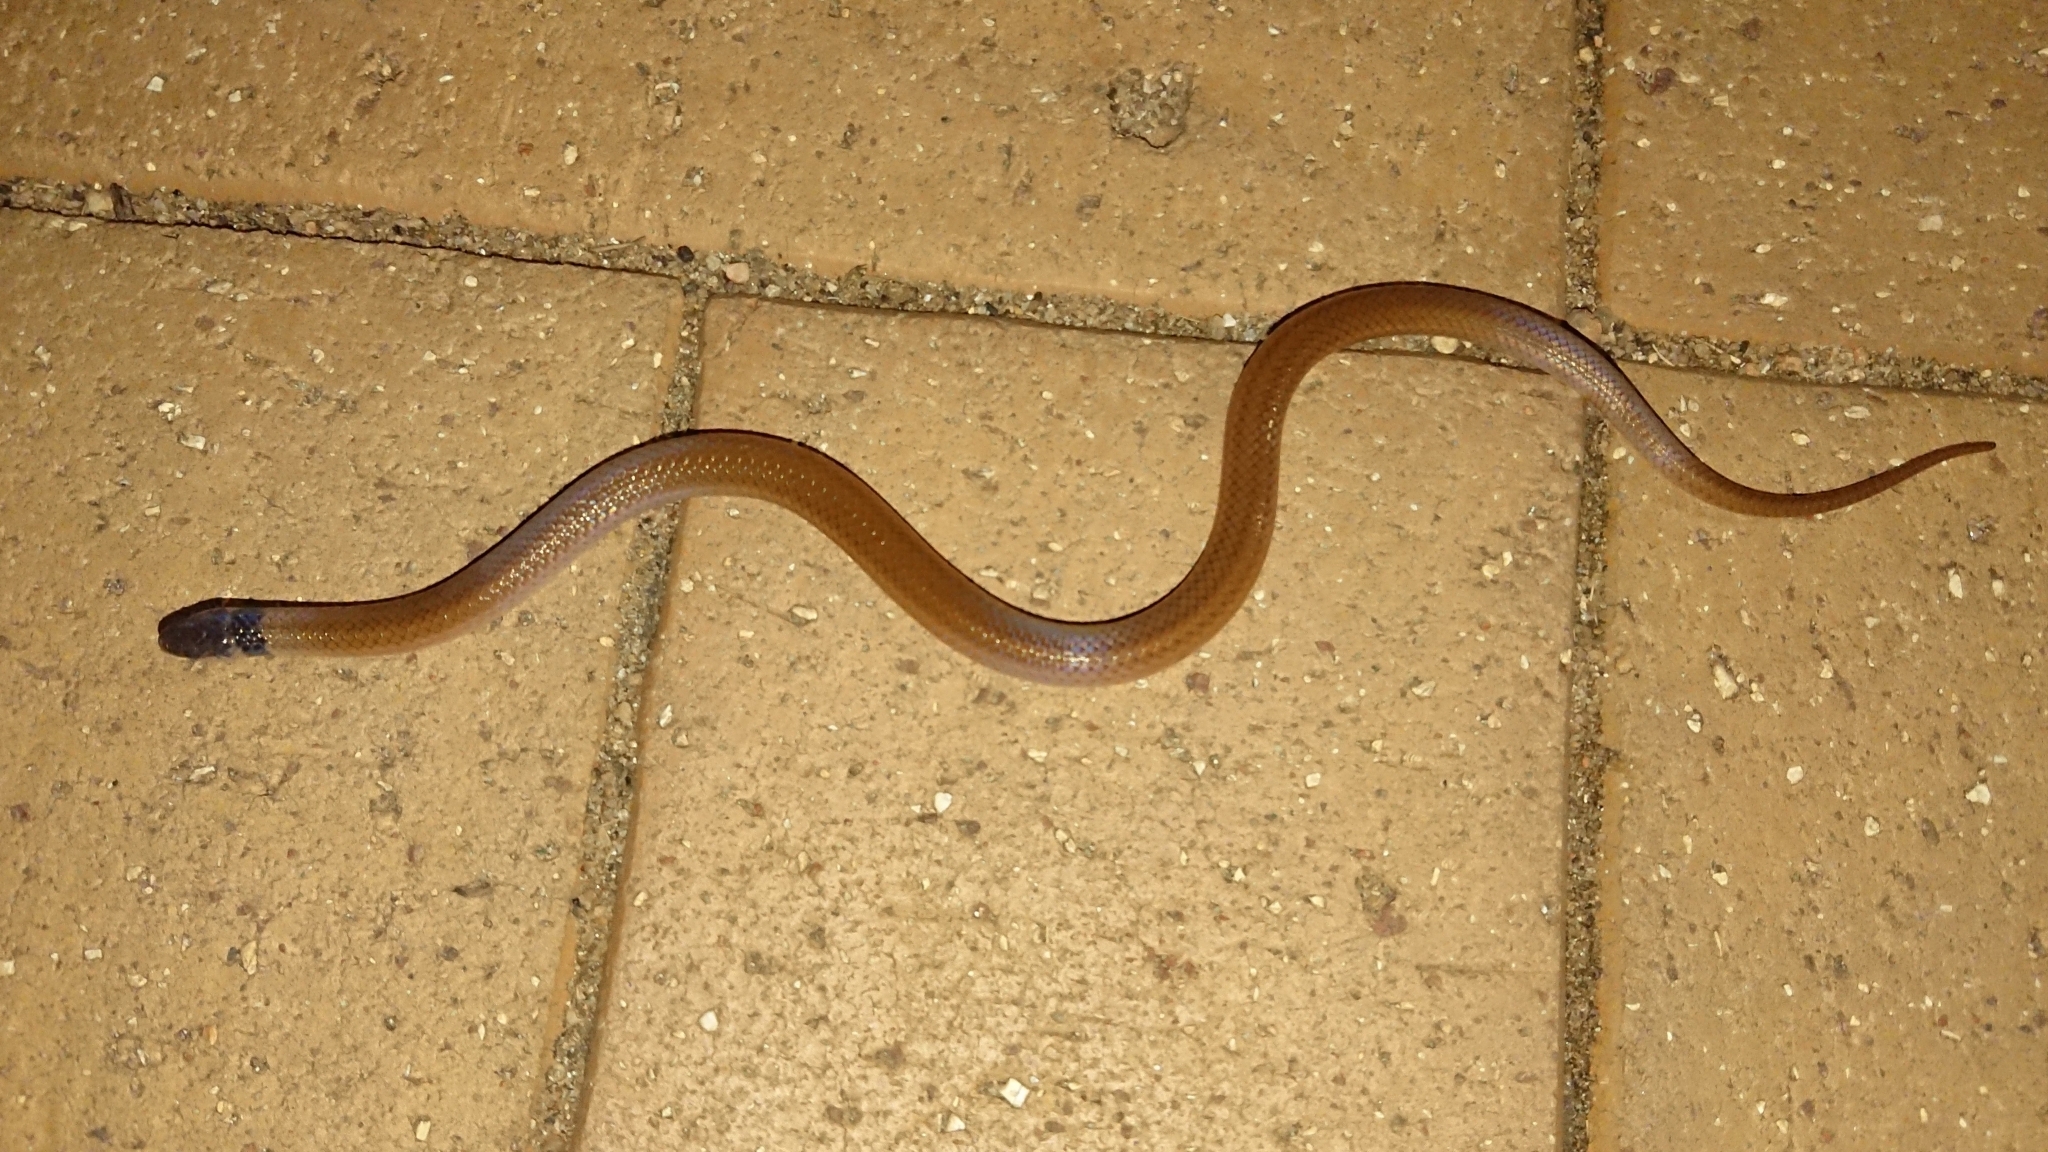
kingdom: Animalia
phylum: Chordata
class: Squamata
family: Atractaspididae
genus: Aparallactus
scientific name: Aparallactus capensis
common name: Cape centipede eater
